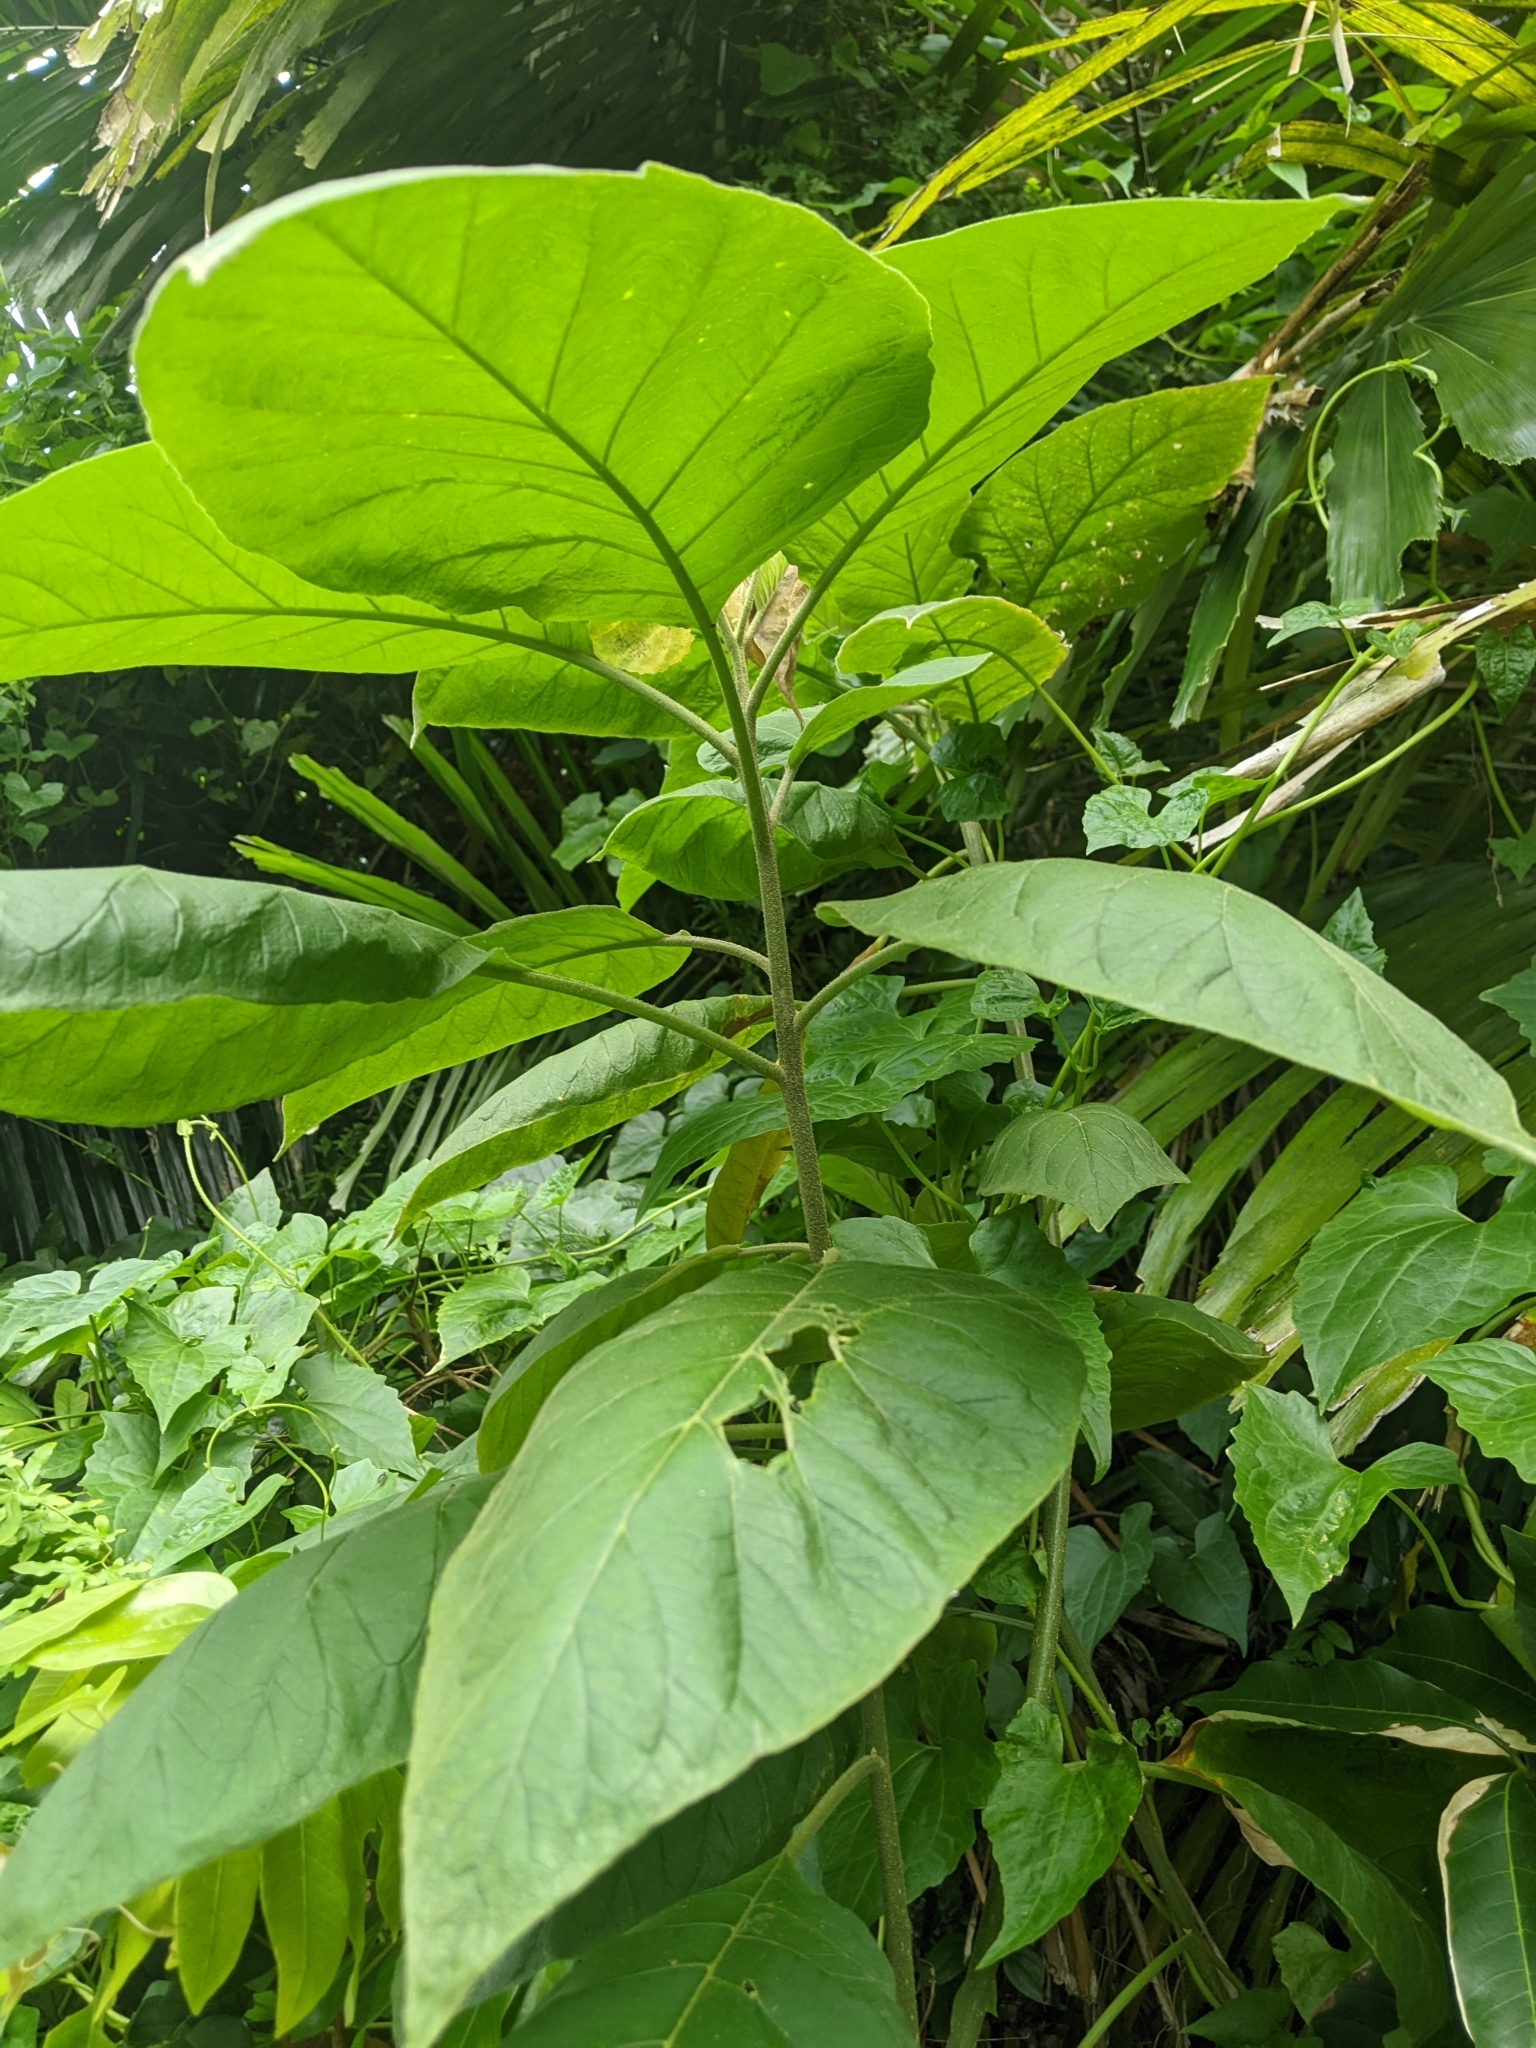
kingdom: Plantae
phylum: Tracheophyta
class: Magnoliopsida
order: Solanales
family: Solanaceae
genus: Solanum
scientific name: Solanum erianthum
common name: Tobacco-tree
